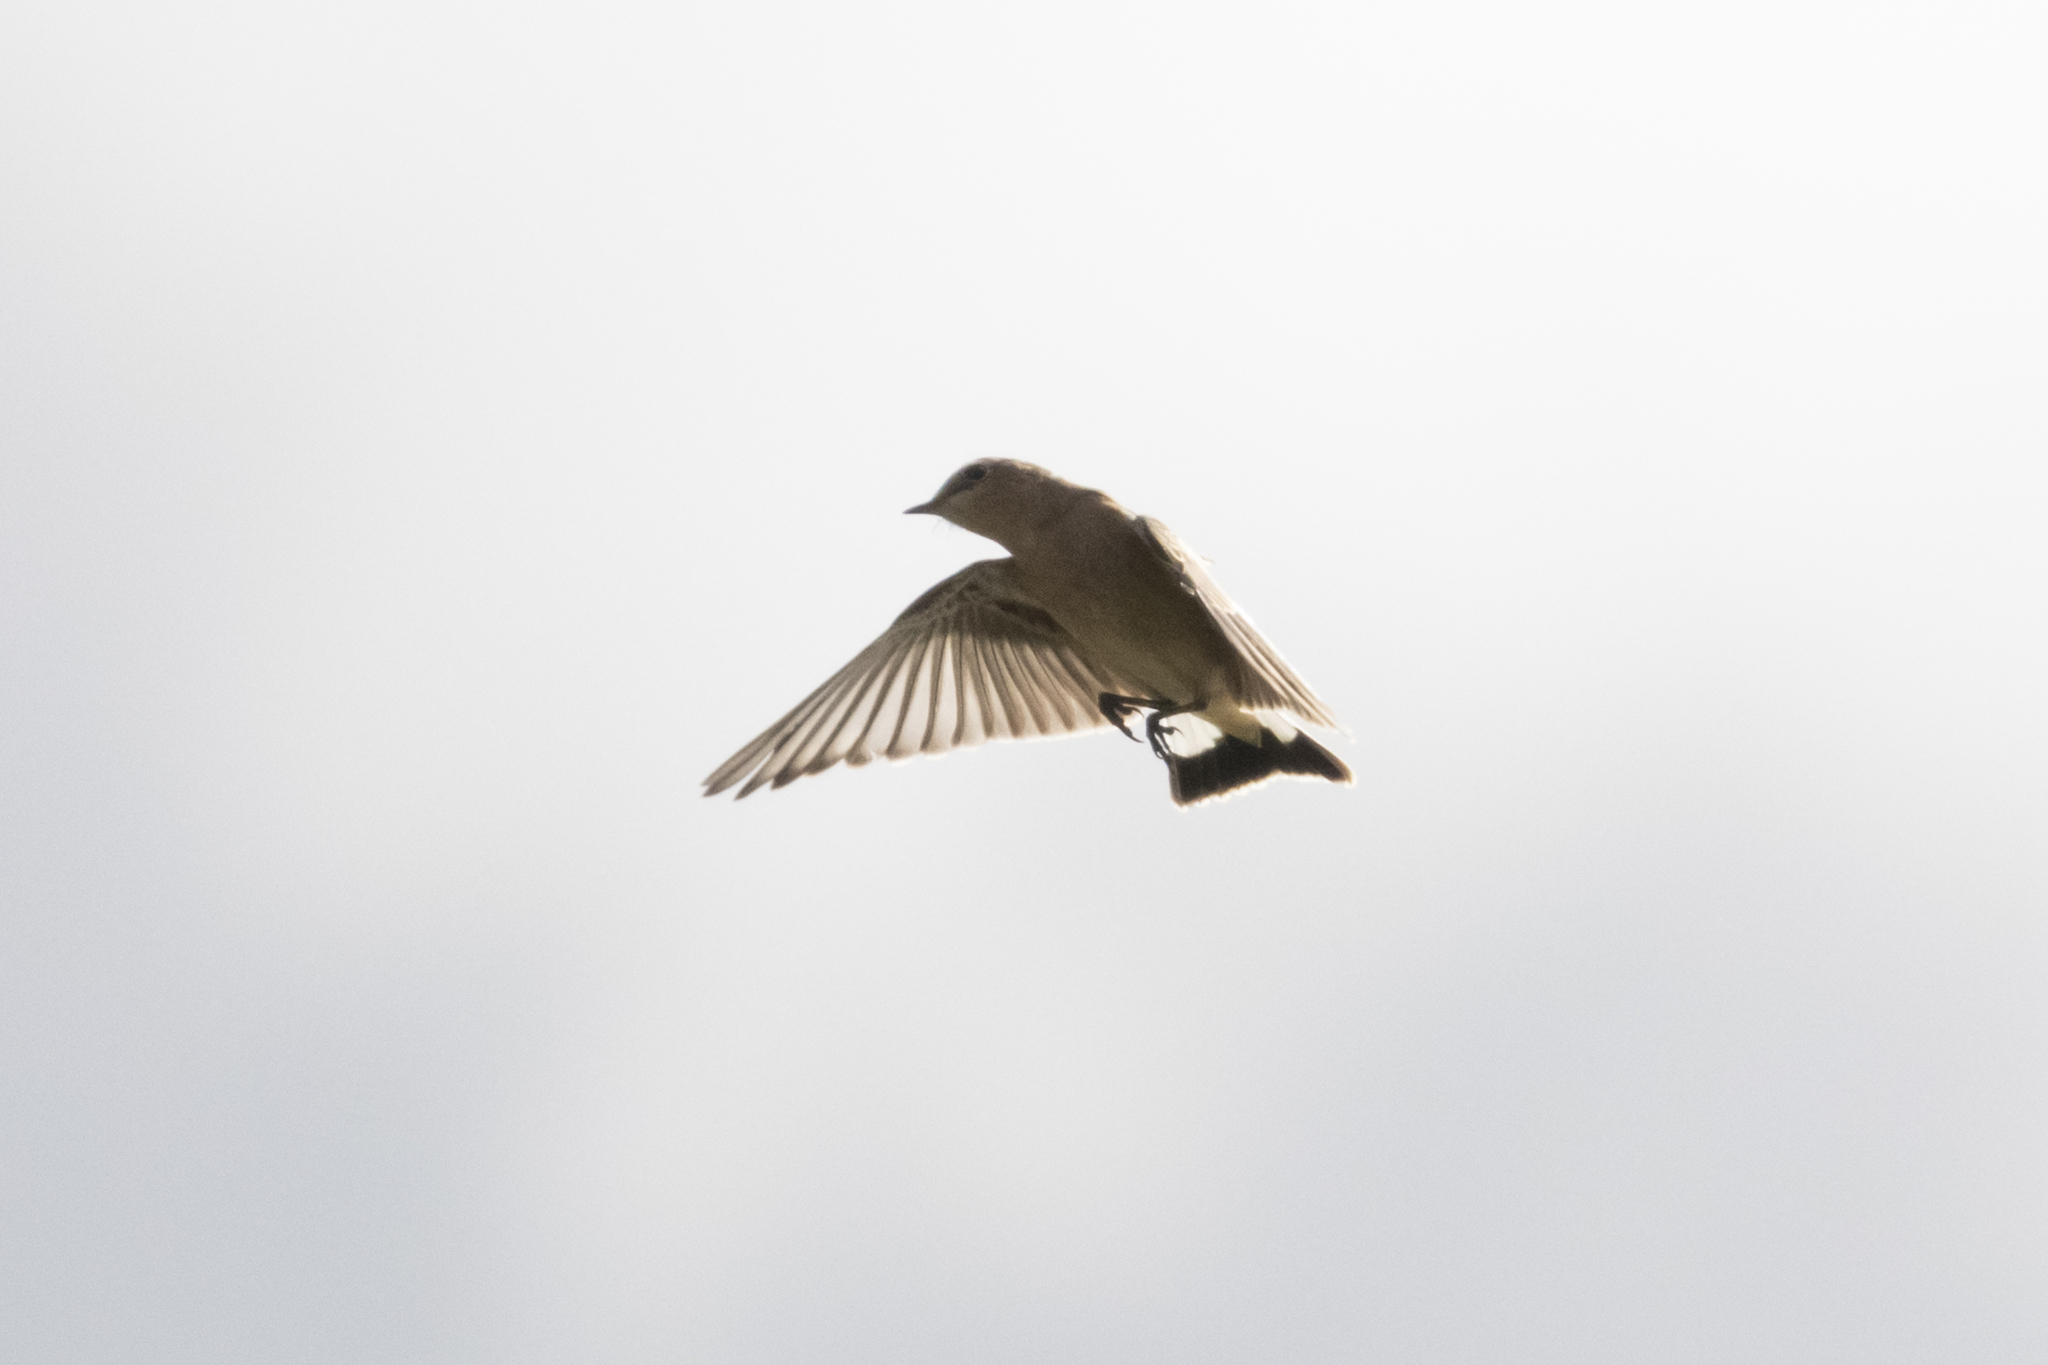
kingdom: Animalia
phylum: Chordata
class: Aves
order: Passeriformes
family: Muscicapidae
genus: Oenanthe
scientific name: Oenanthe oenanthe
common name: Northern wheatear
